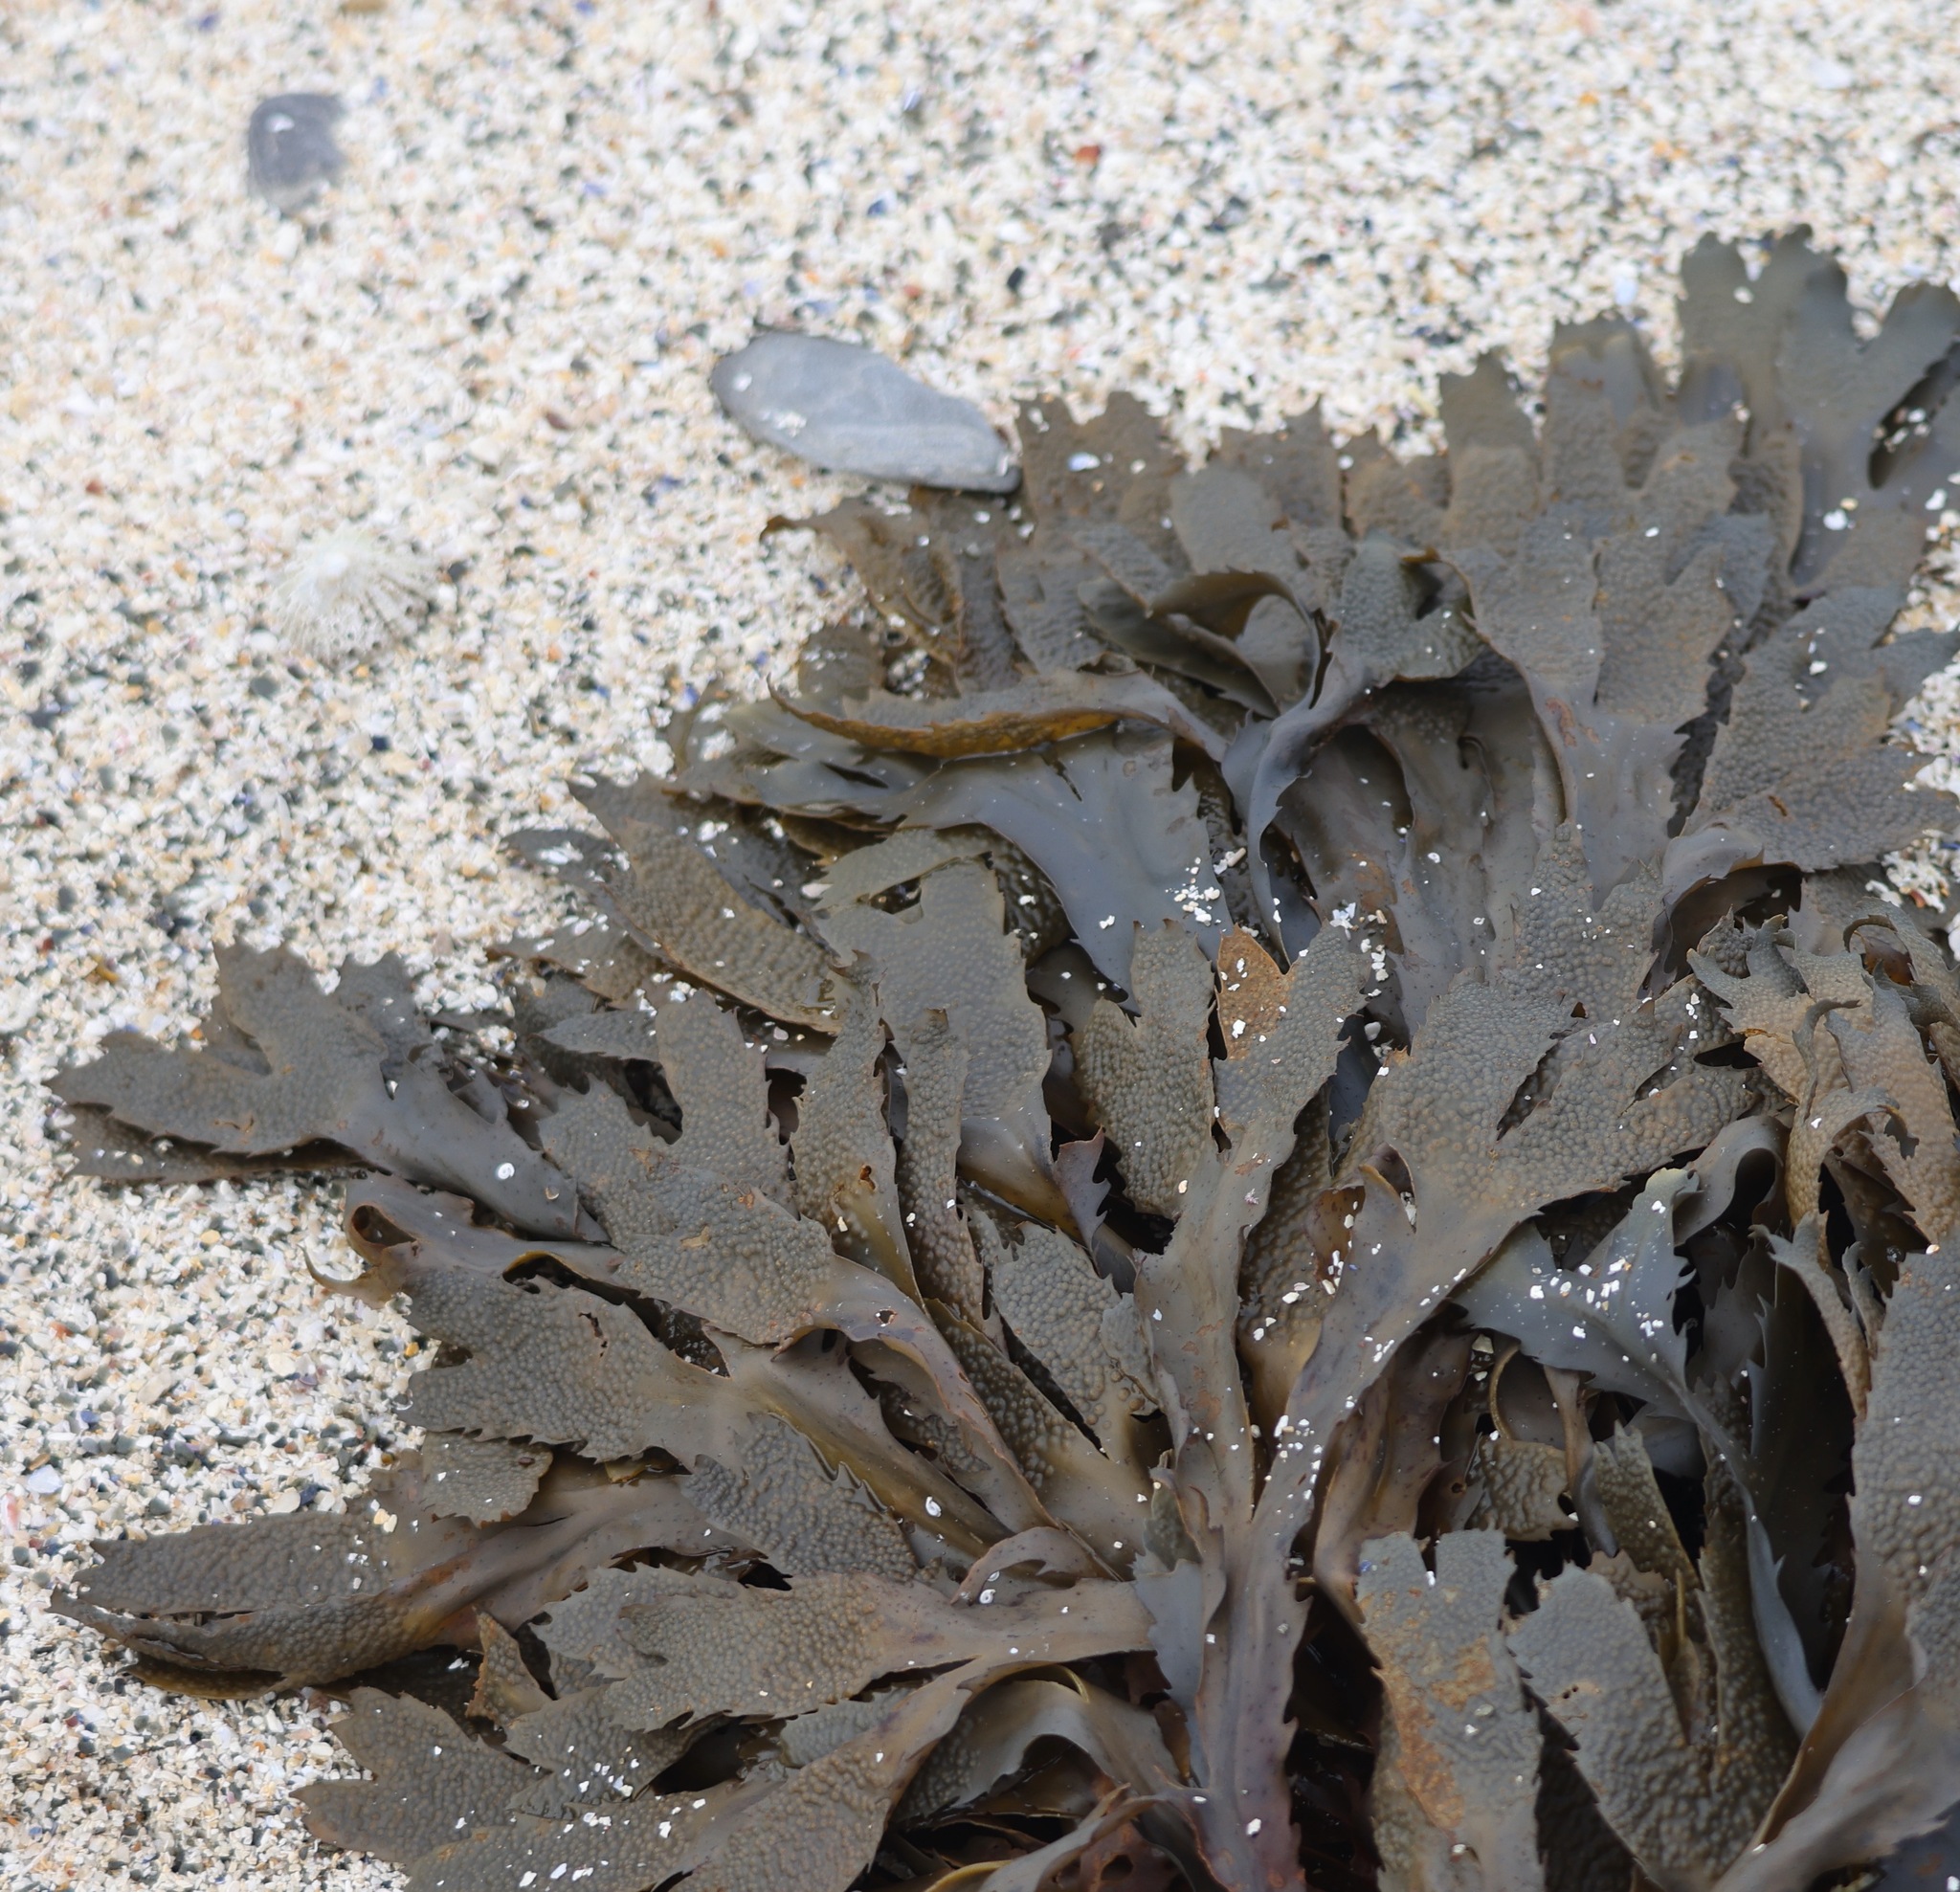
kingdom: Chromista
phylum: Ochrophyta
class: Phaeophyceae
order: Fucales
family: Fucaceae
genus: Fucus
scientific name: Fucus serratus
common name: Toothed wrack
